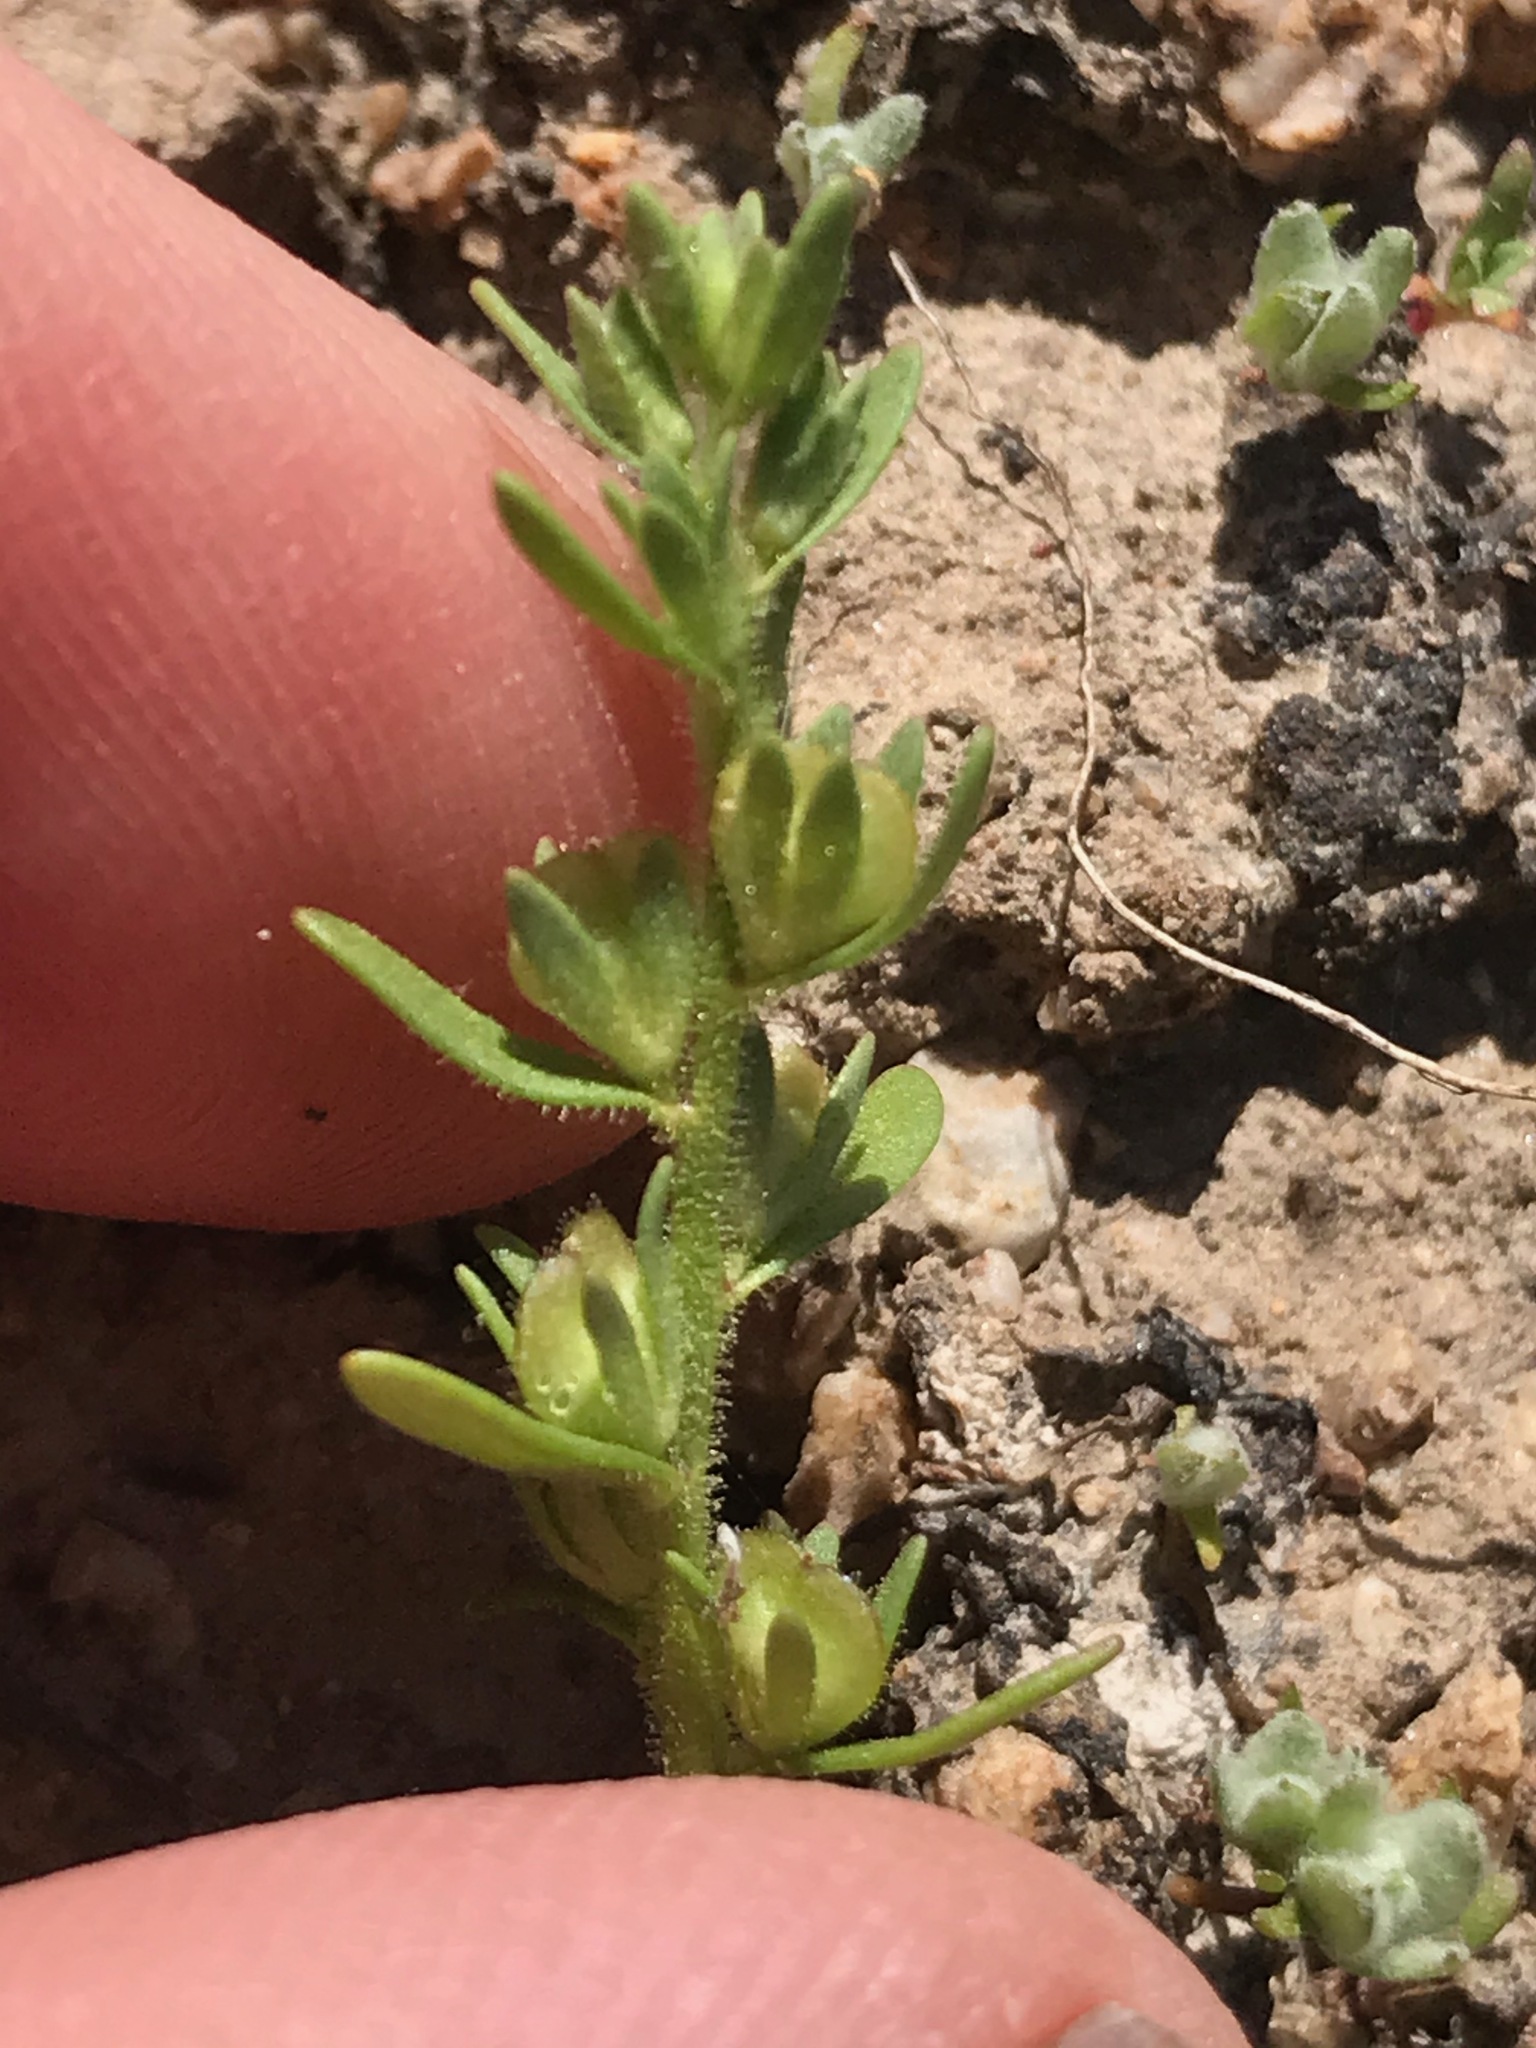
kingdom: Plantae
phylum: Tracheophyta
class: Magnoliopsida
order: Lamiales
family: Plantaginaceae
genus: Veronica
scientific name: Veronica peregrina
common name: Neckweed
